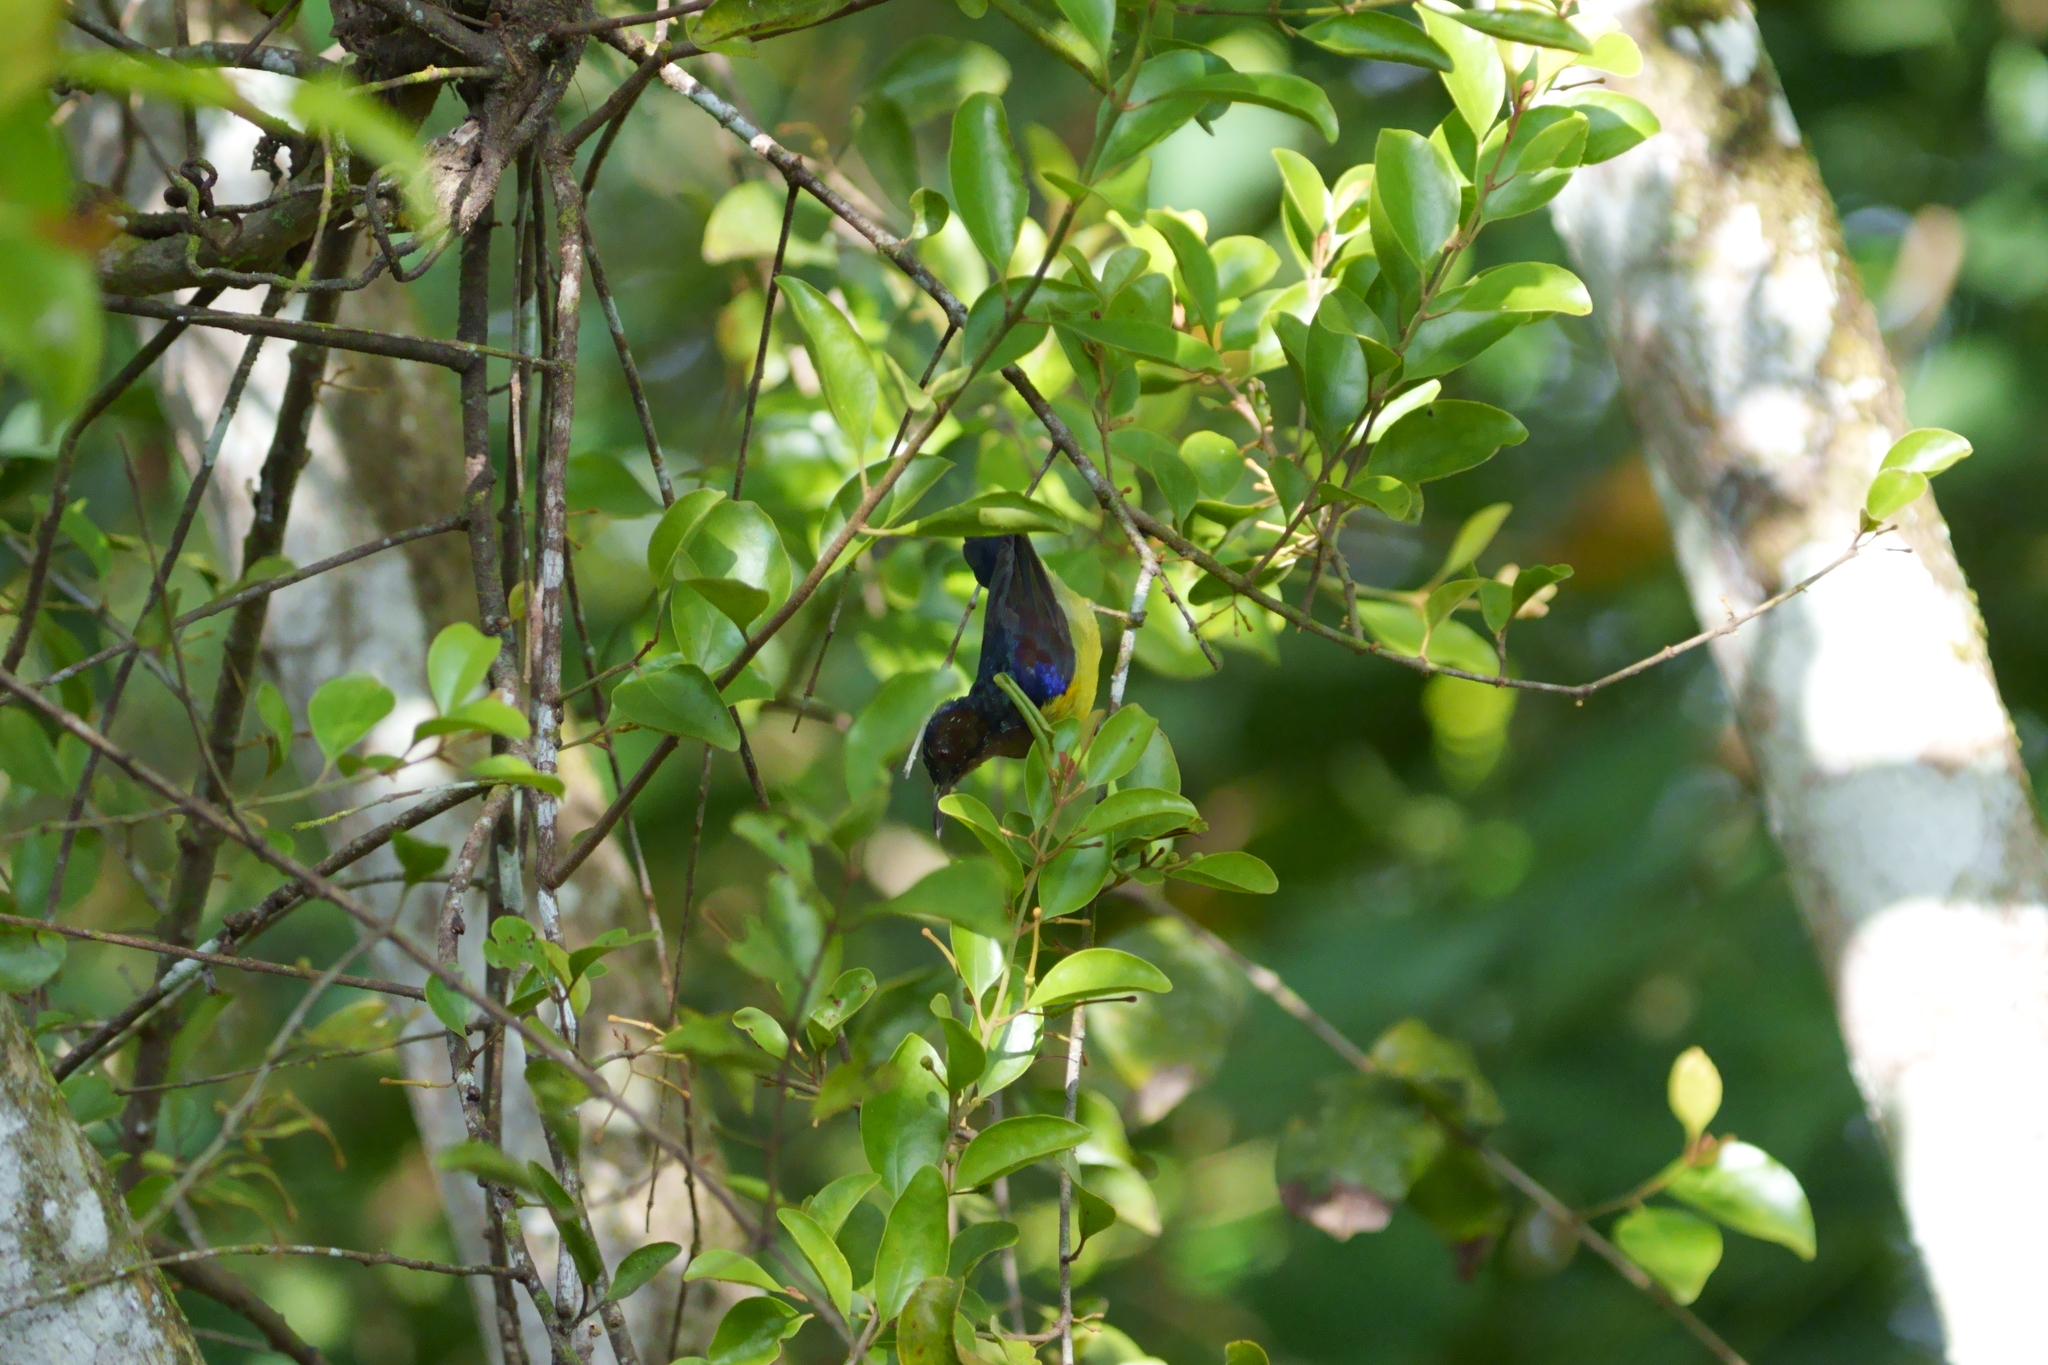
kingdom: Animalia
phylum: Chordata
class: Aves
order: Passeriformes
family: Nectariniidae
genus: Anthreptes
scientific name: Anthreptes malacensis
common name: Brown-throated sunbird
